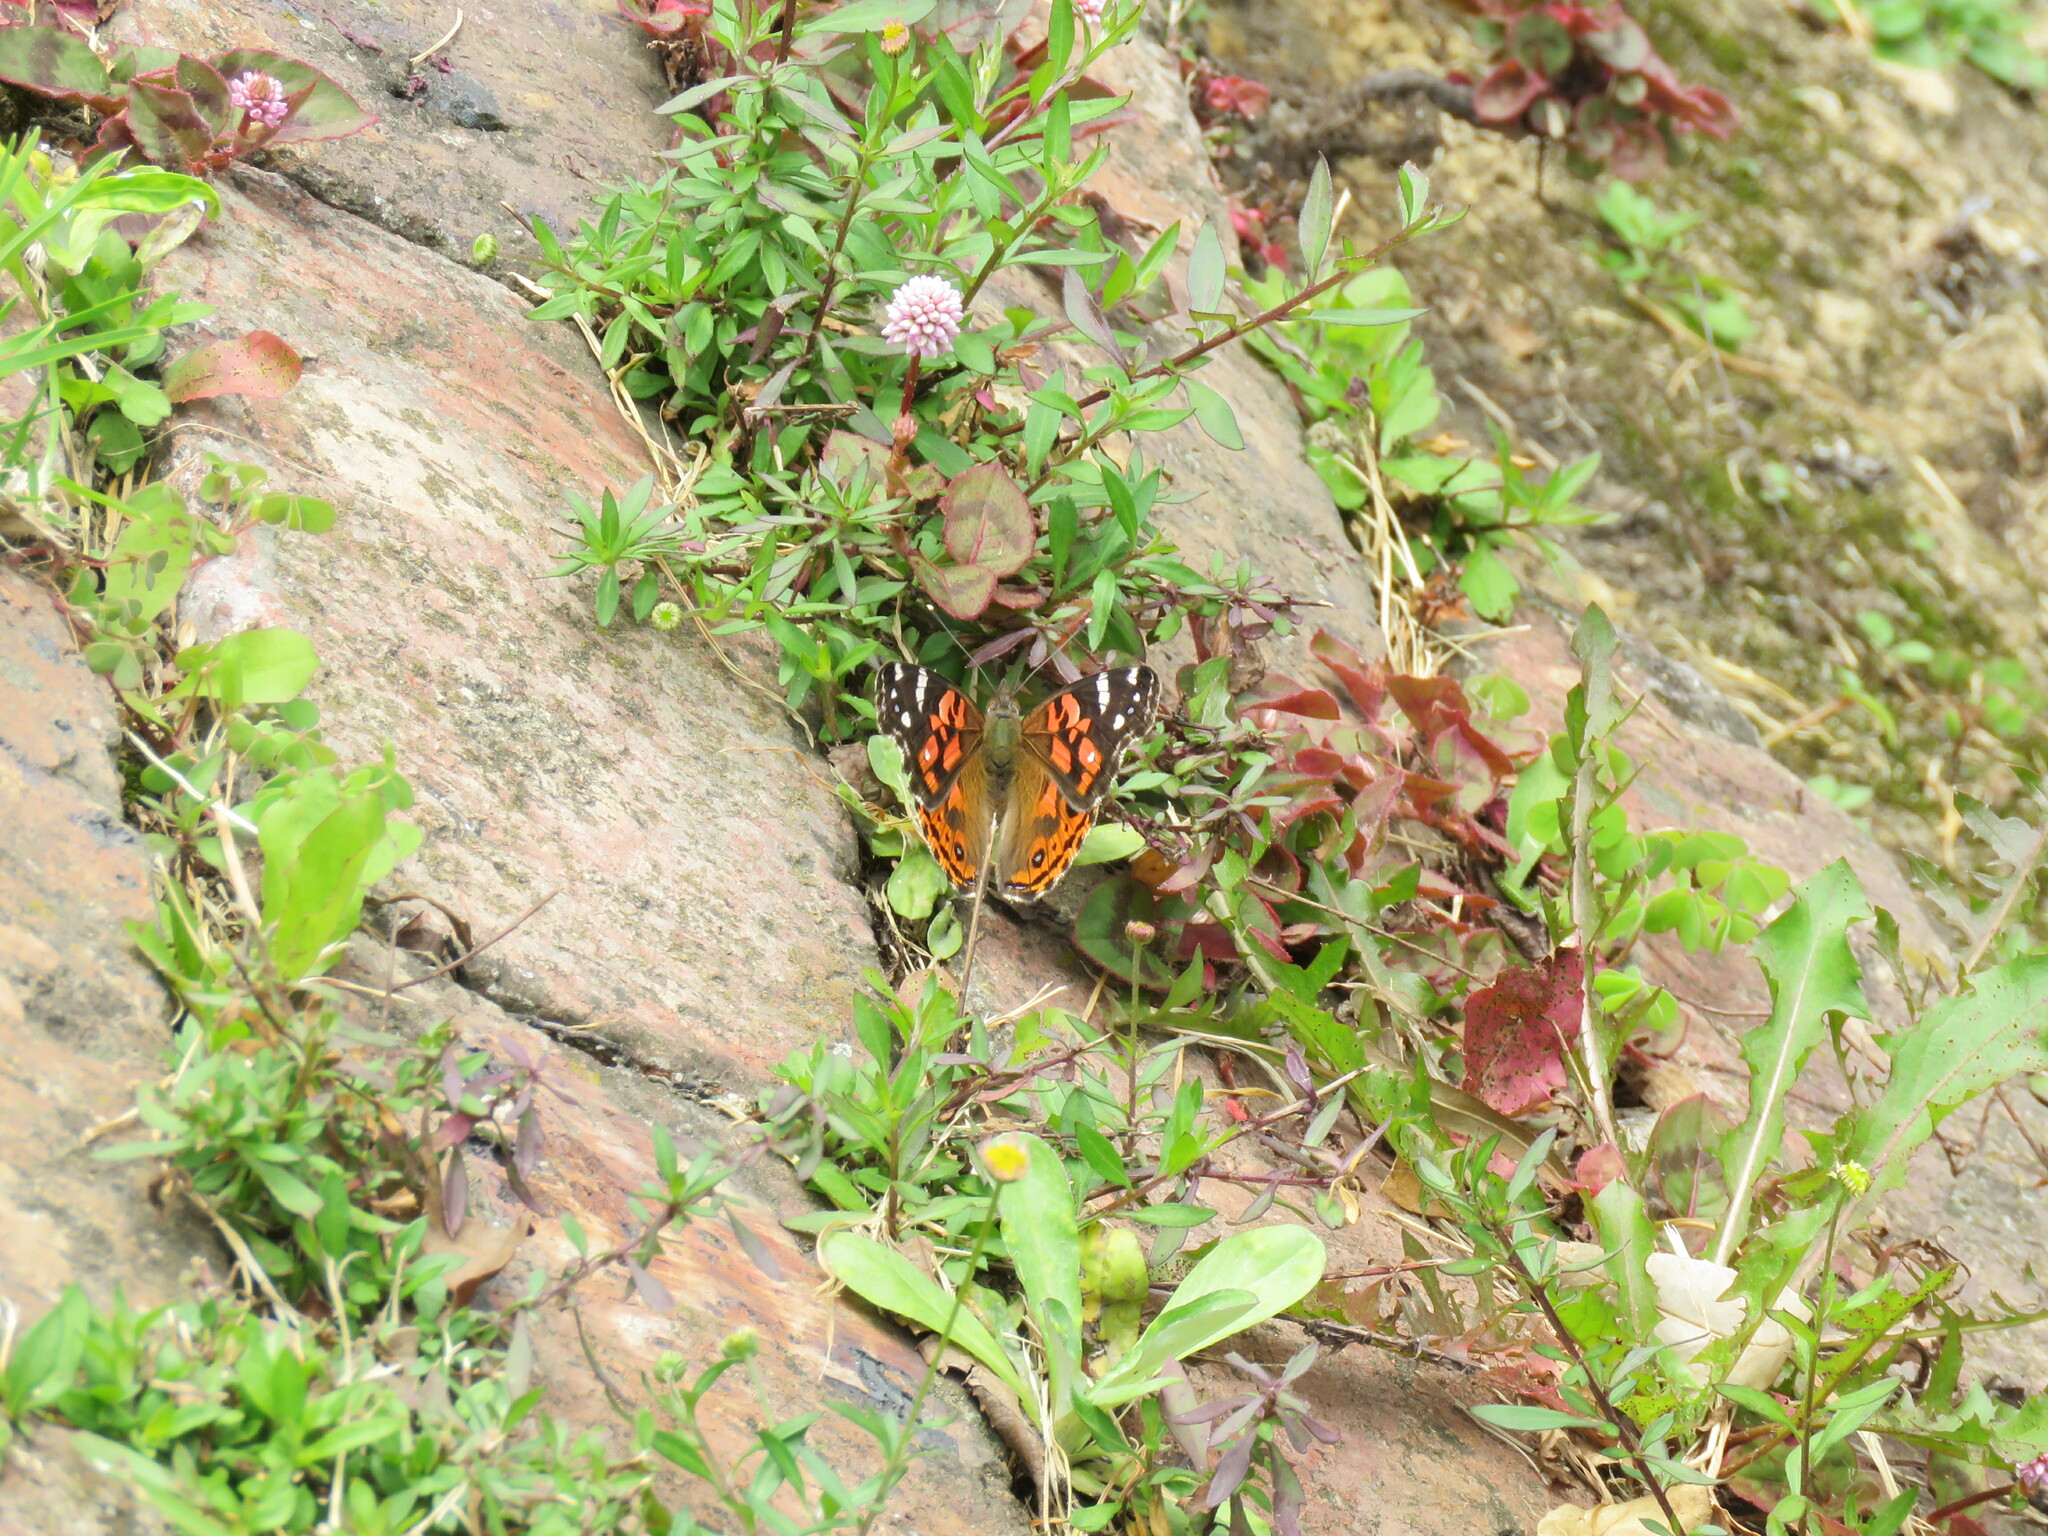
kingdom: Animalia
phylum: Arthropoda
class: Insecta
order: Lepidoptera
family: Nymphalidae
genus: Vanessa
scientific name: Vanessa braziliensis
